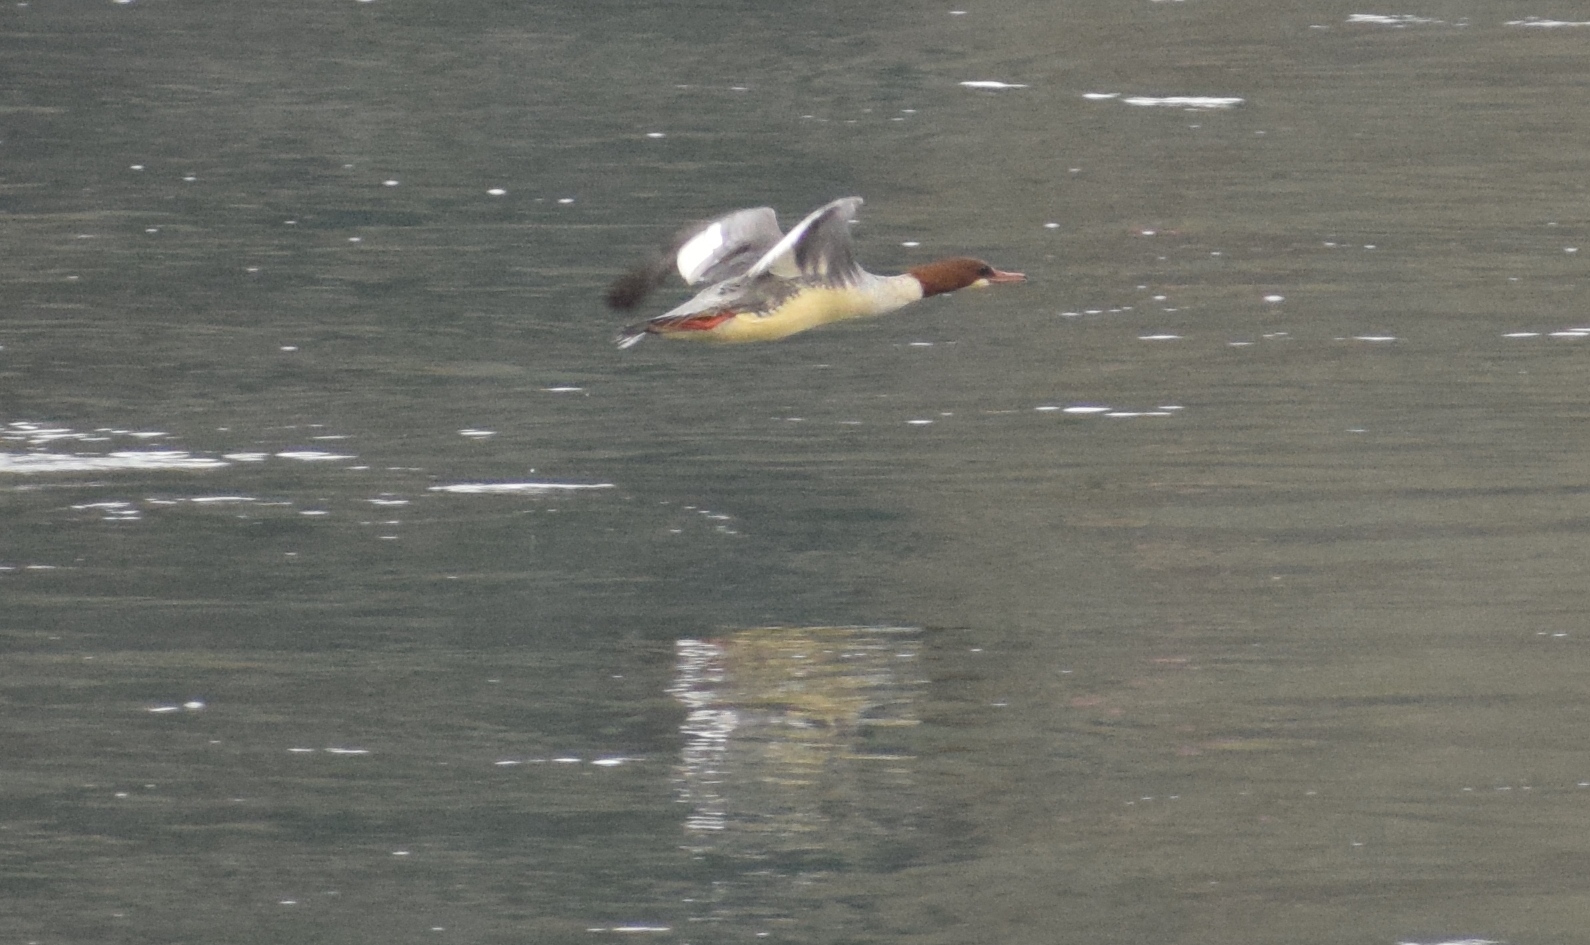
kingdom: Animalia
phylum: Chordata
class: Aves
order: Anseriformes
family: Anatidae
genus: Mergus
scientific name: Mergus merganser
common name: Common merganser
